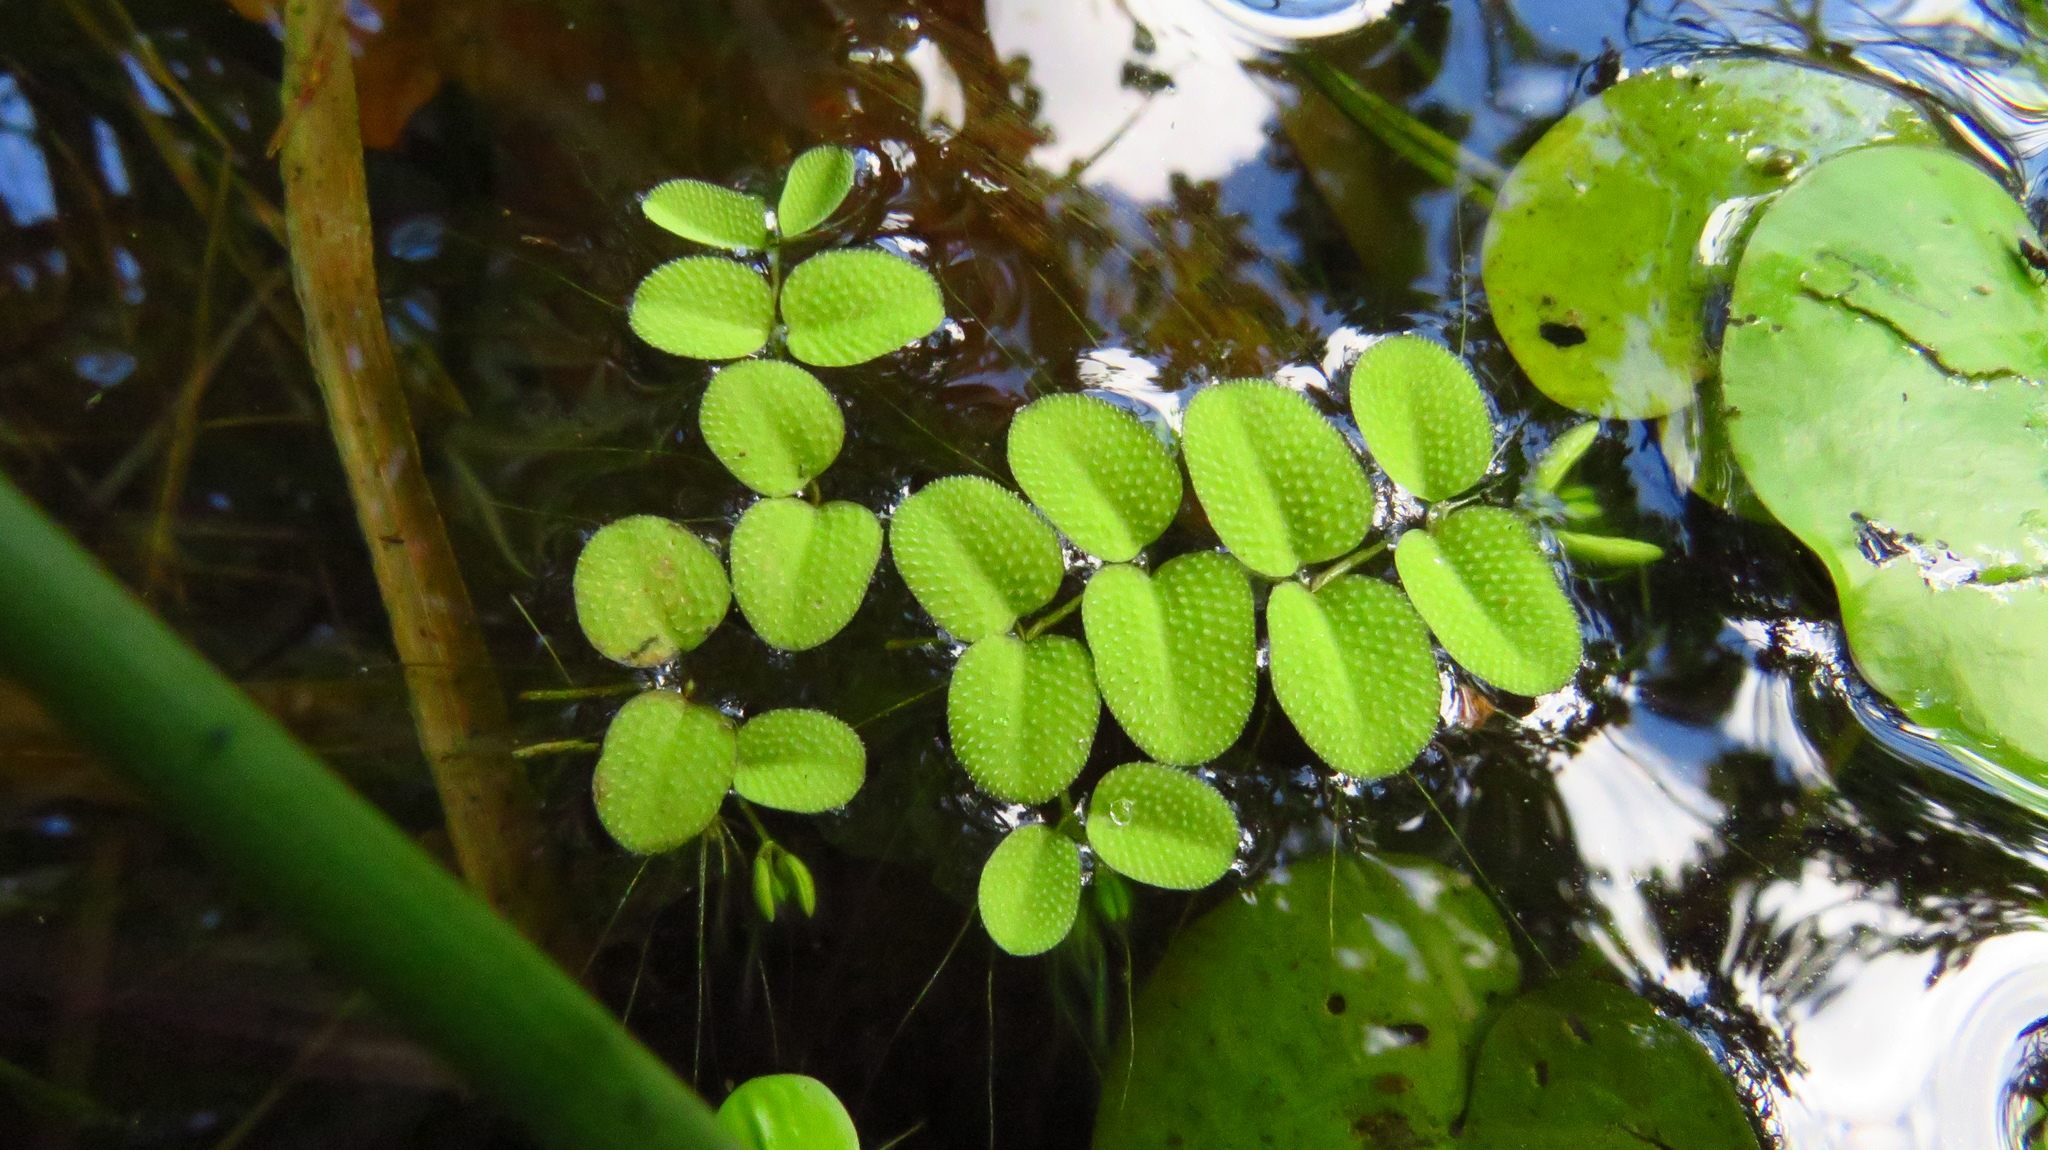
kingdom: Plantae
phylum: Tracheophyta
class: Polypodiopsida
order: Salviniales
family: Salviniaceae
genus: Salvinia
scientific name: Salvinia natans
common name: Floating fern
